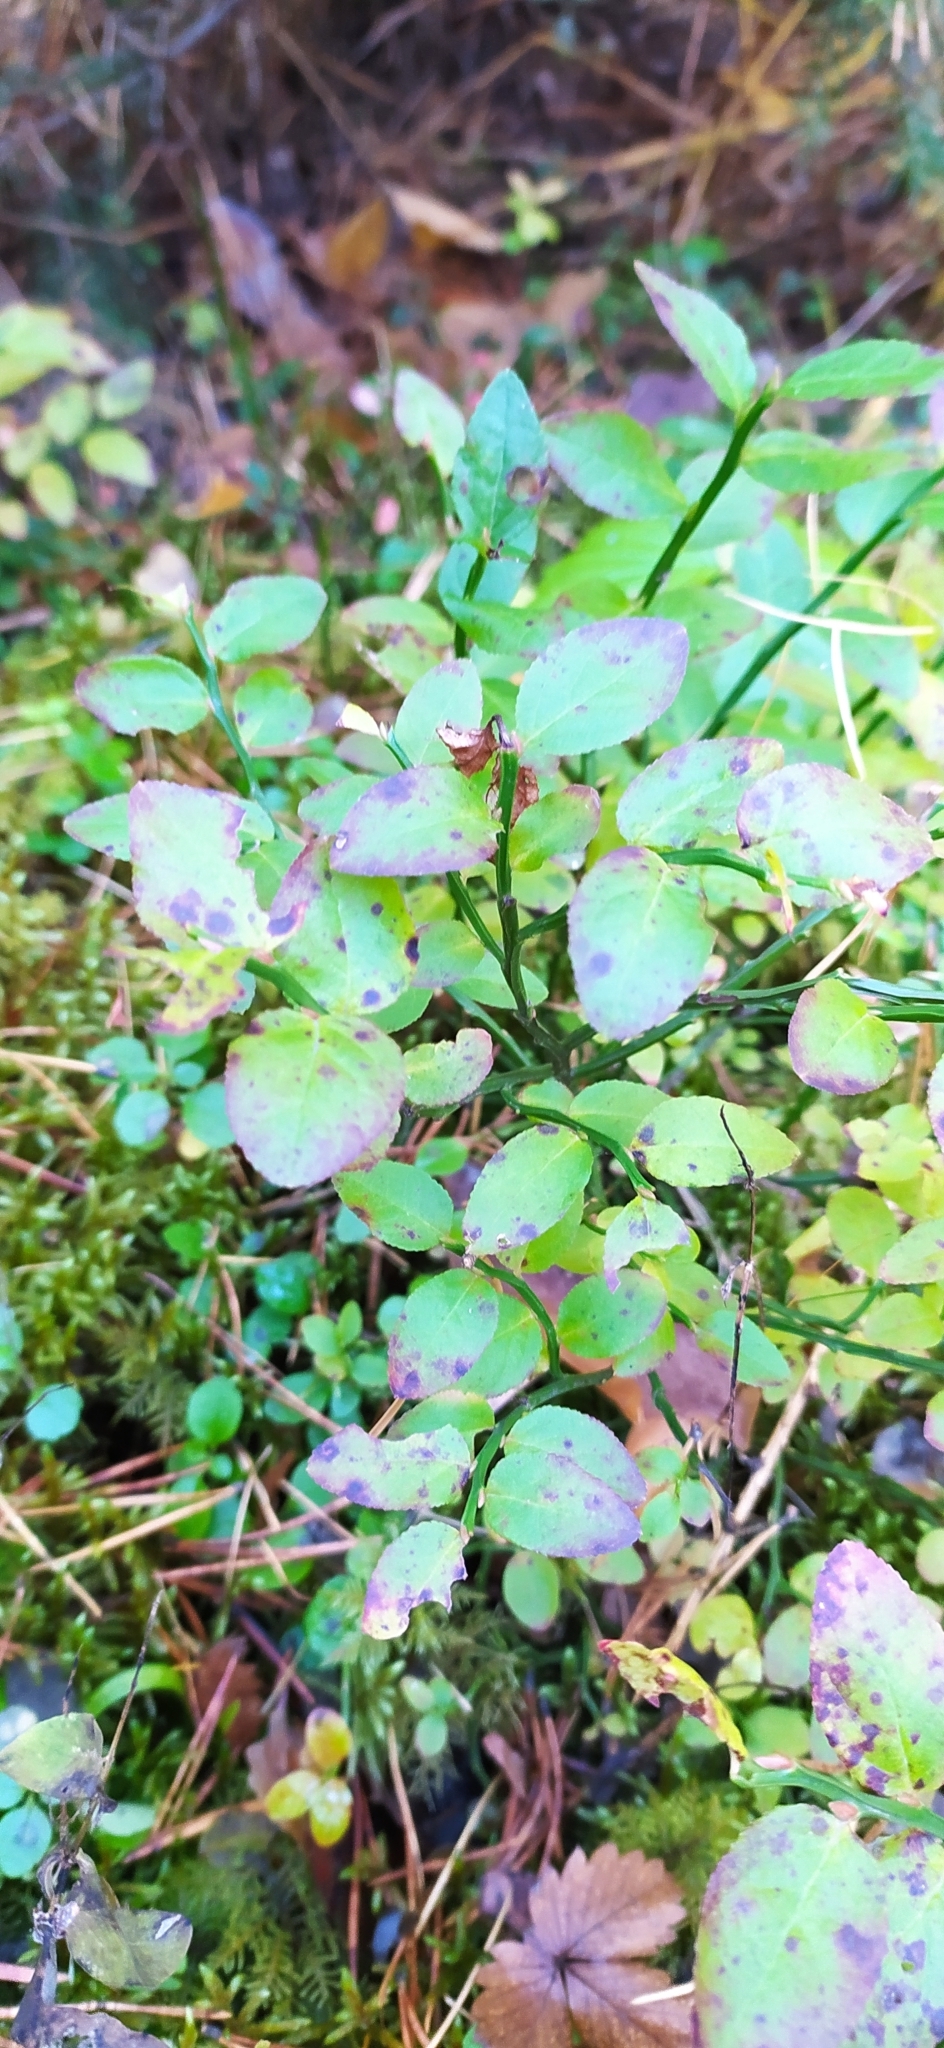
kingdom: Plantae
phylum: Tracheophyta
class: Magnoliopsida
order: Ericales
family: Ericaceae
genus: Vaccinium
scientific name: Vaccinium myrtillus
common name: Bilberry
